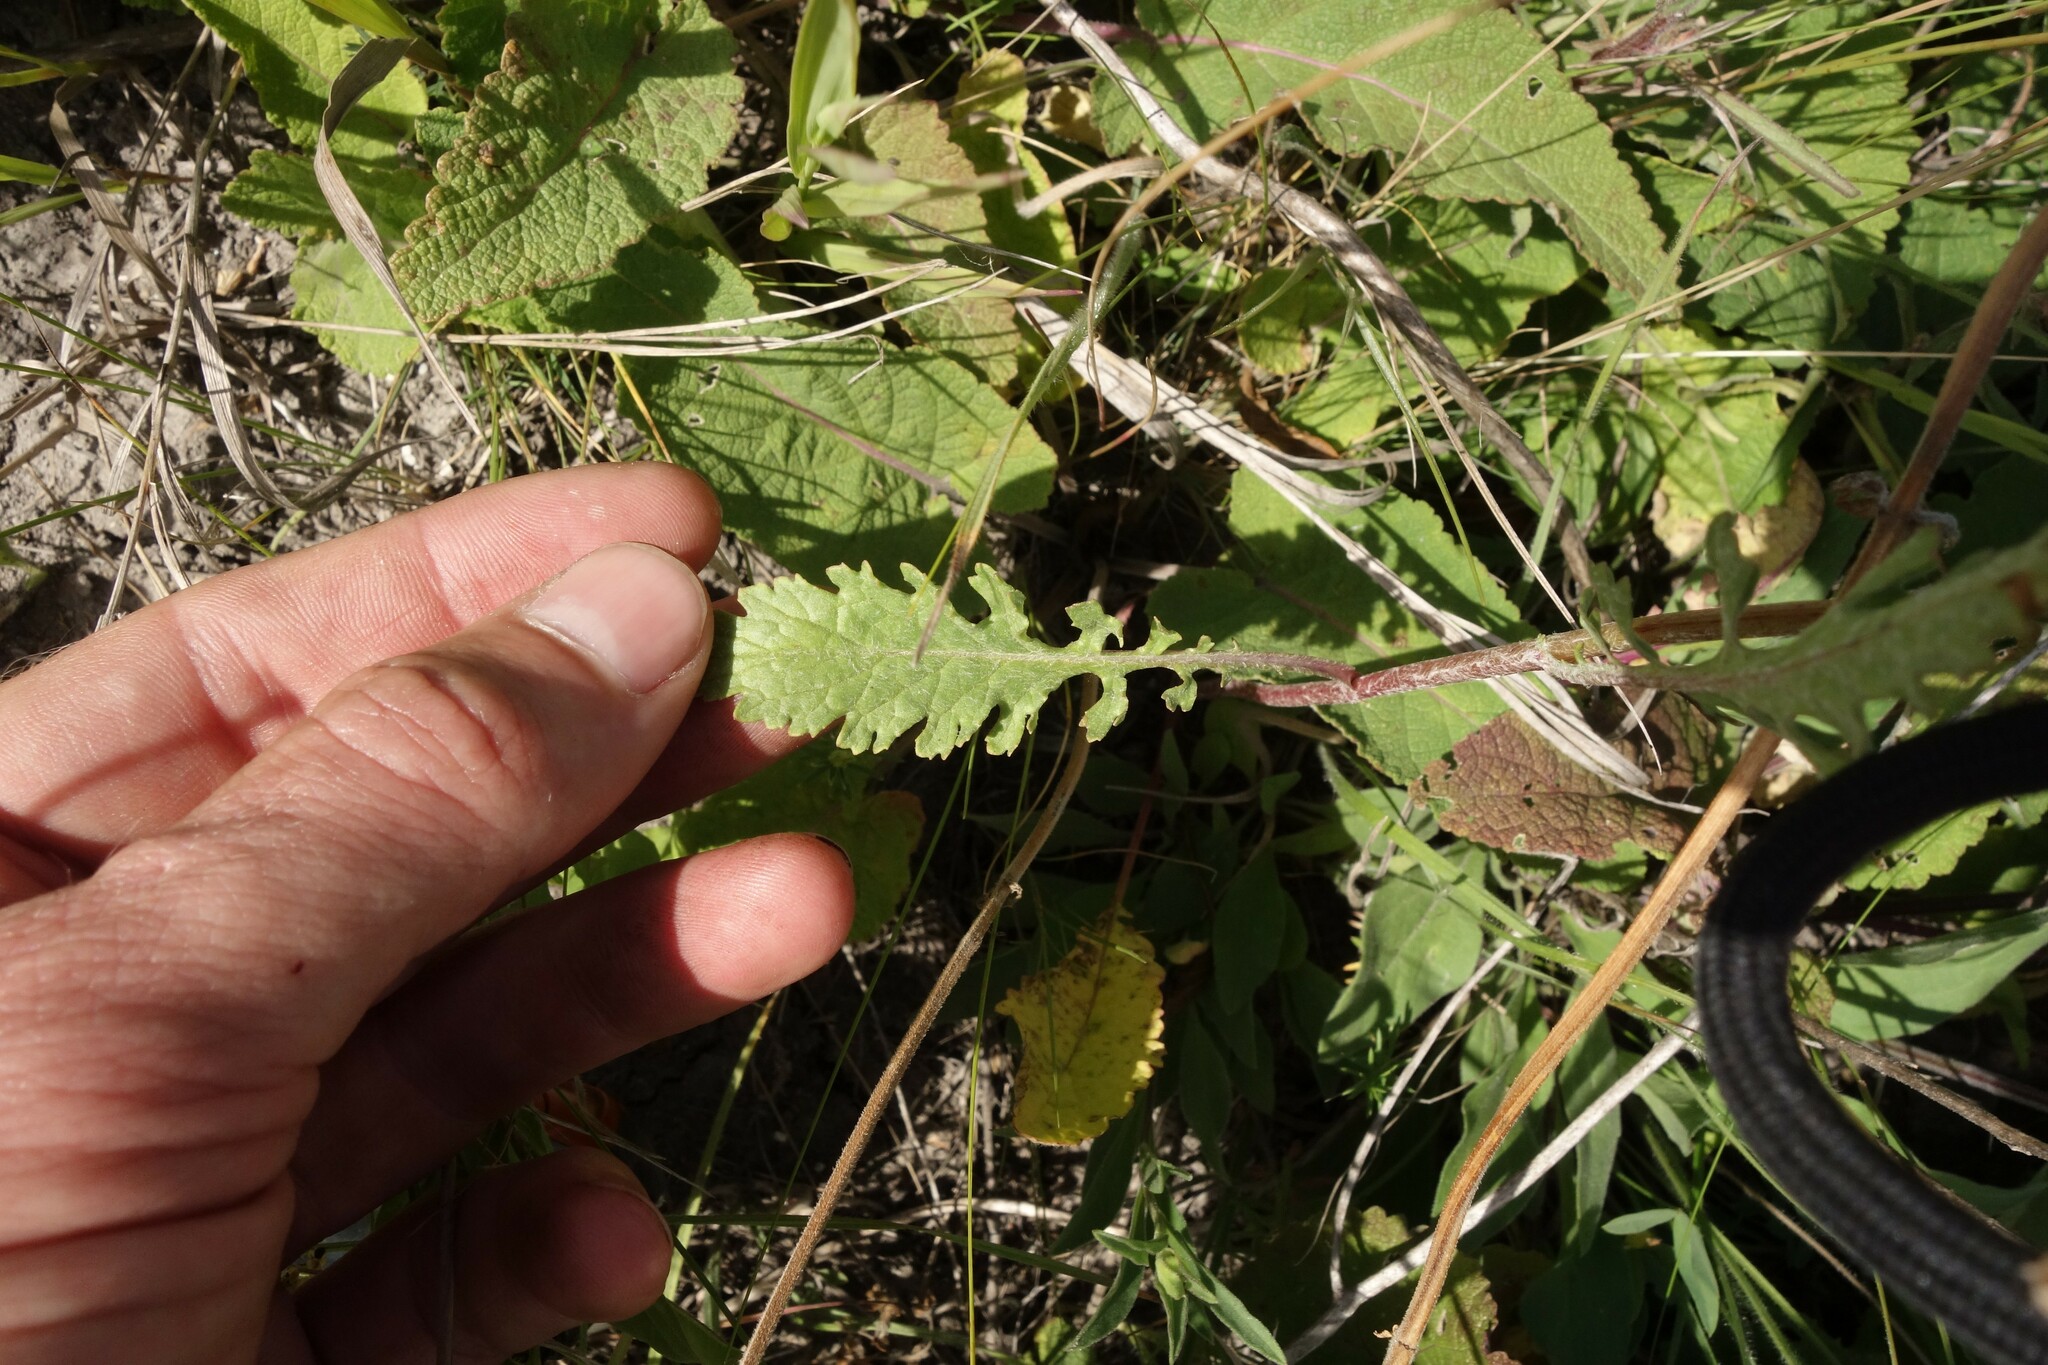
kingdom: Plantae
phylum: Tracheophyta
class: Magnoliopsida
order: Asterales
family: Asteraceae
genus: Jacobaea
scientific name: Jacobaea vulgaris
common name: Stinking willie
